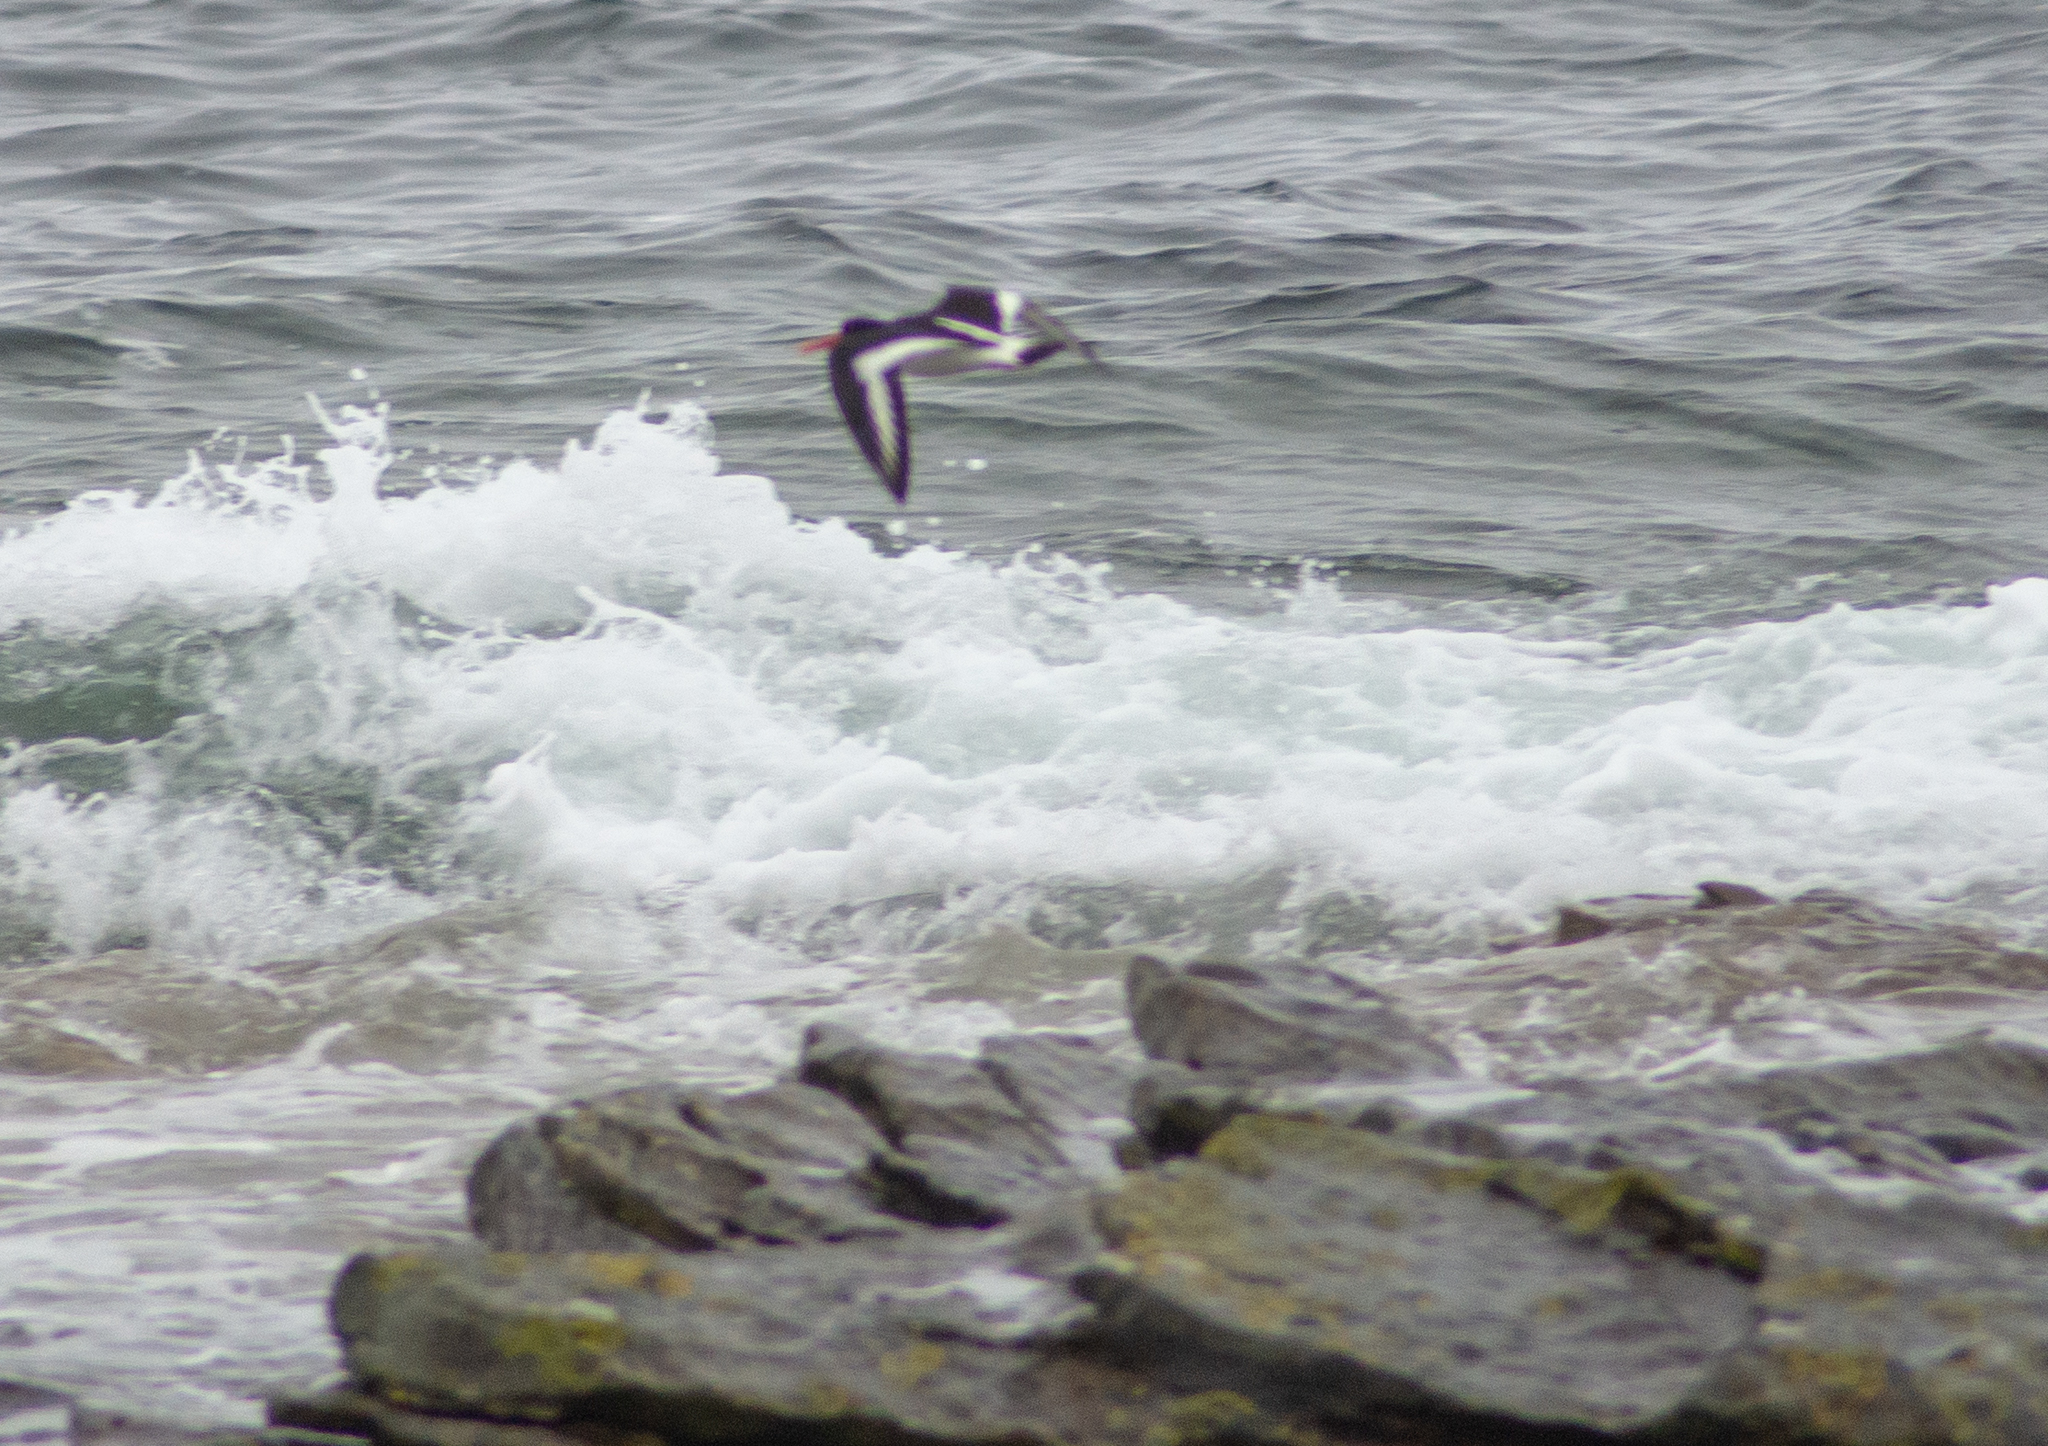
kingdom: Animalia
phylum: Chordata
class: Aves
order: Charadriiformes
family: Haematopodidae
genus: Haematopus
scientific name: Haematopus ostralegus
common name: Eurasian oystercatcher
